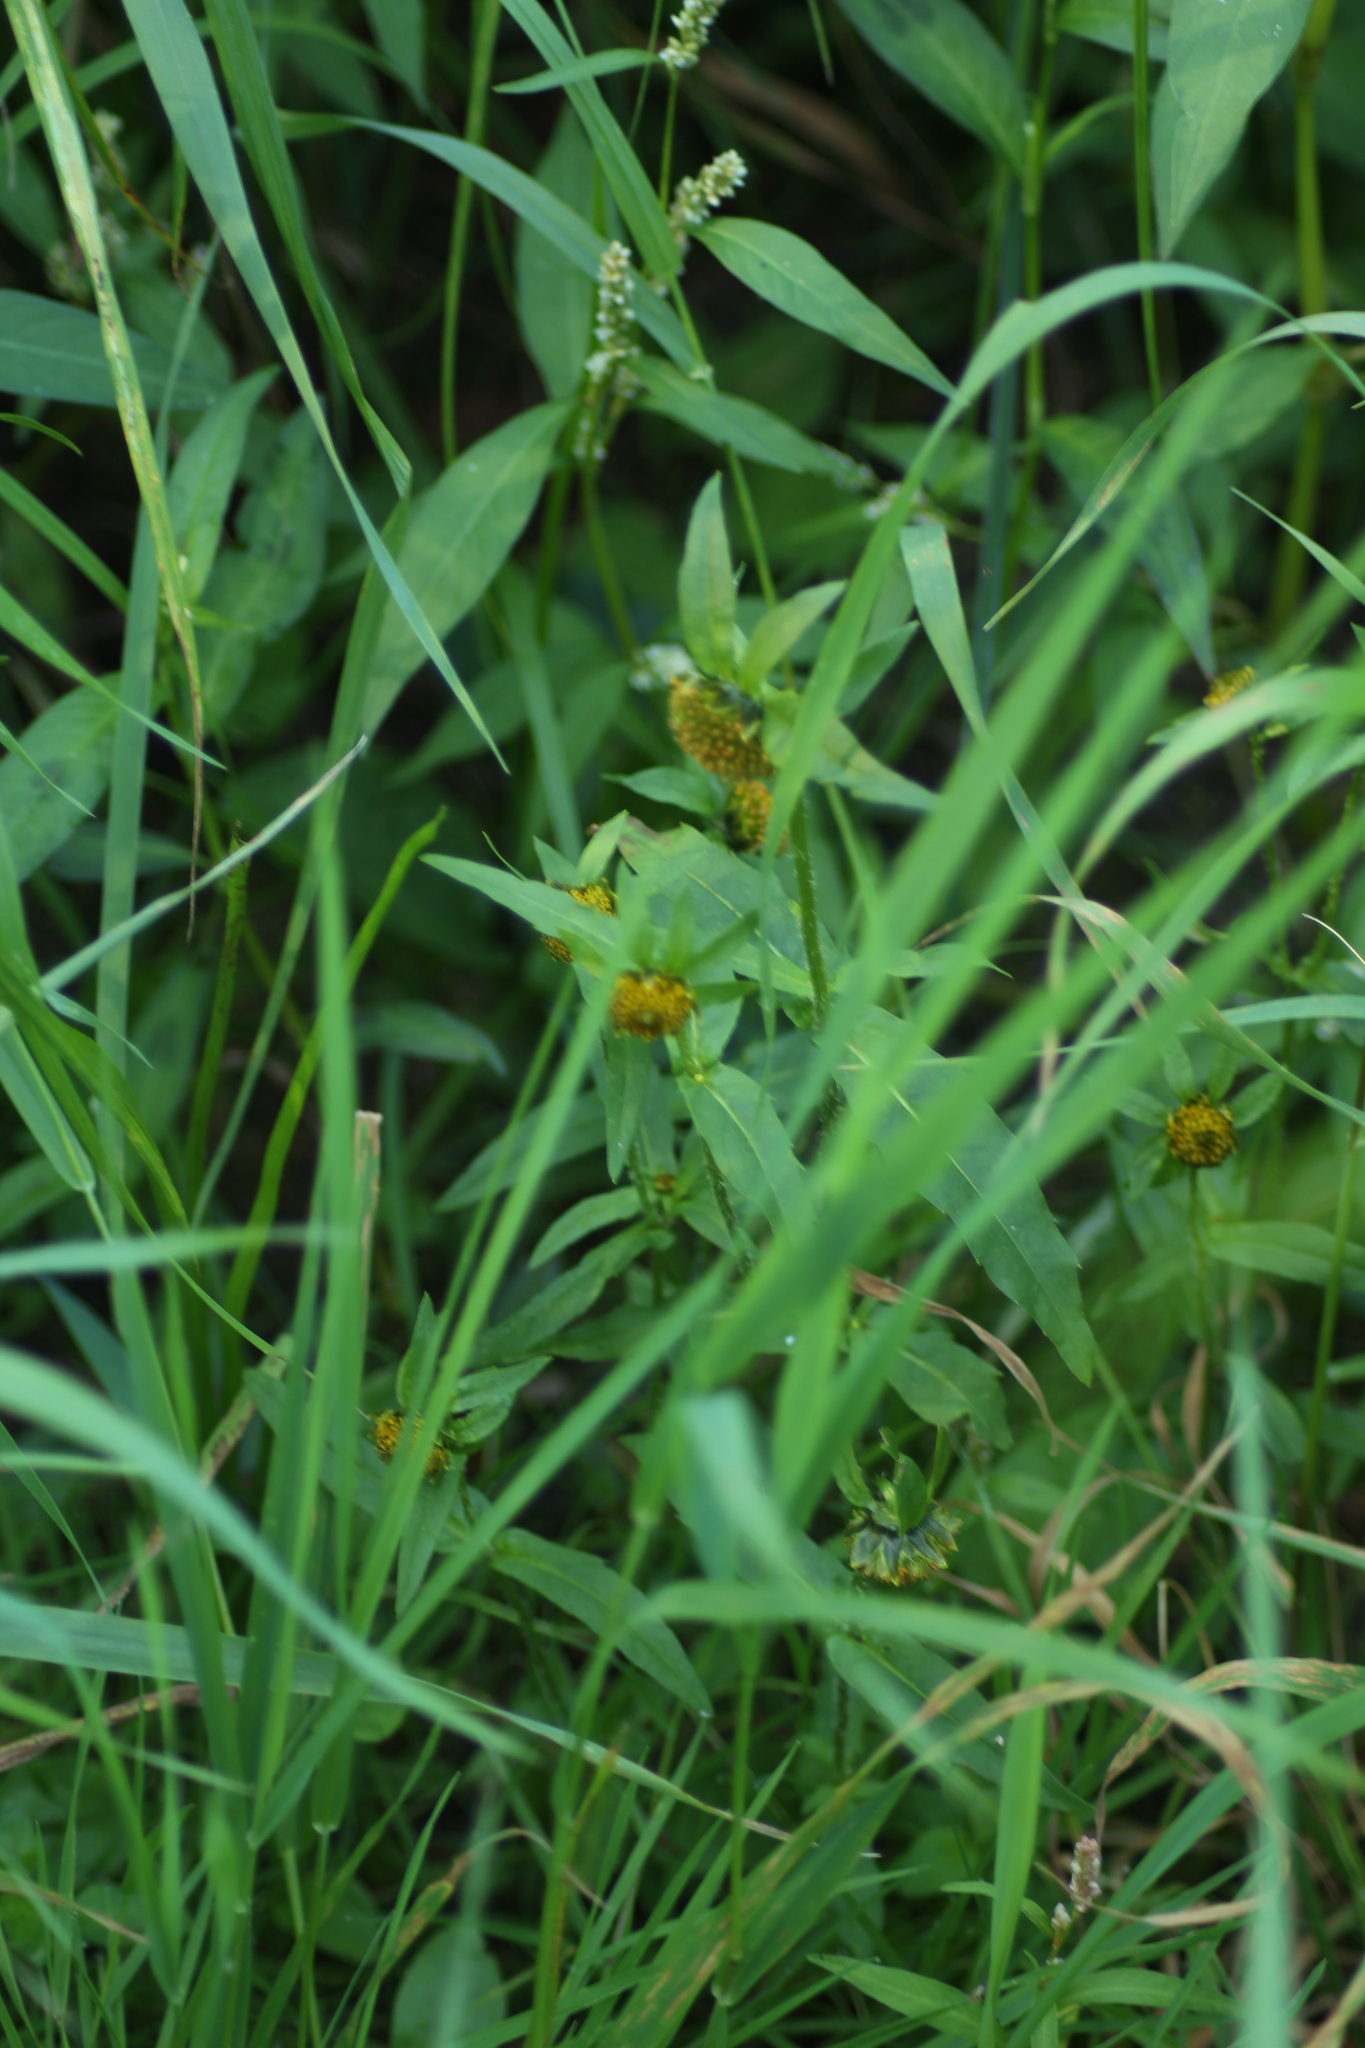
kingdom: Plantae
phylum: Tracheophyta
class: Magnoliopsida
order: Asterales
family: Asteraceae
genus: Bidens
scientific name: Bidens cernua
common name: Nodding bur-marigold
